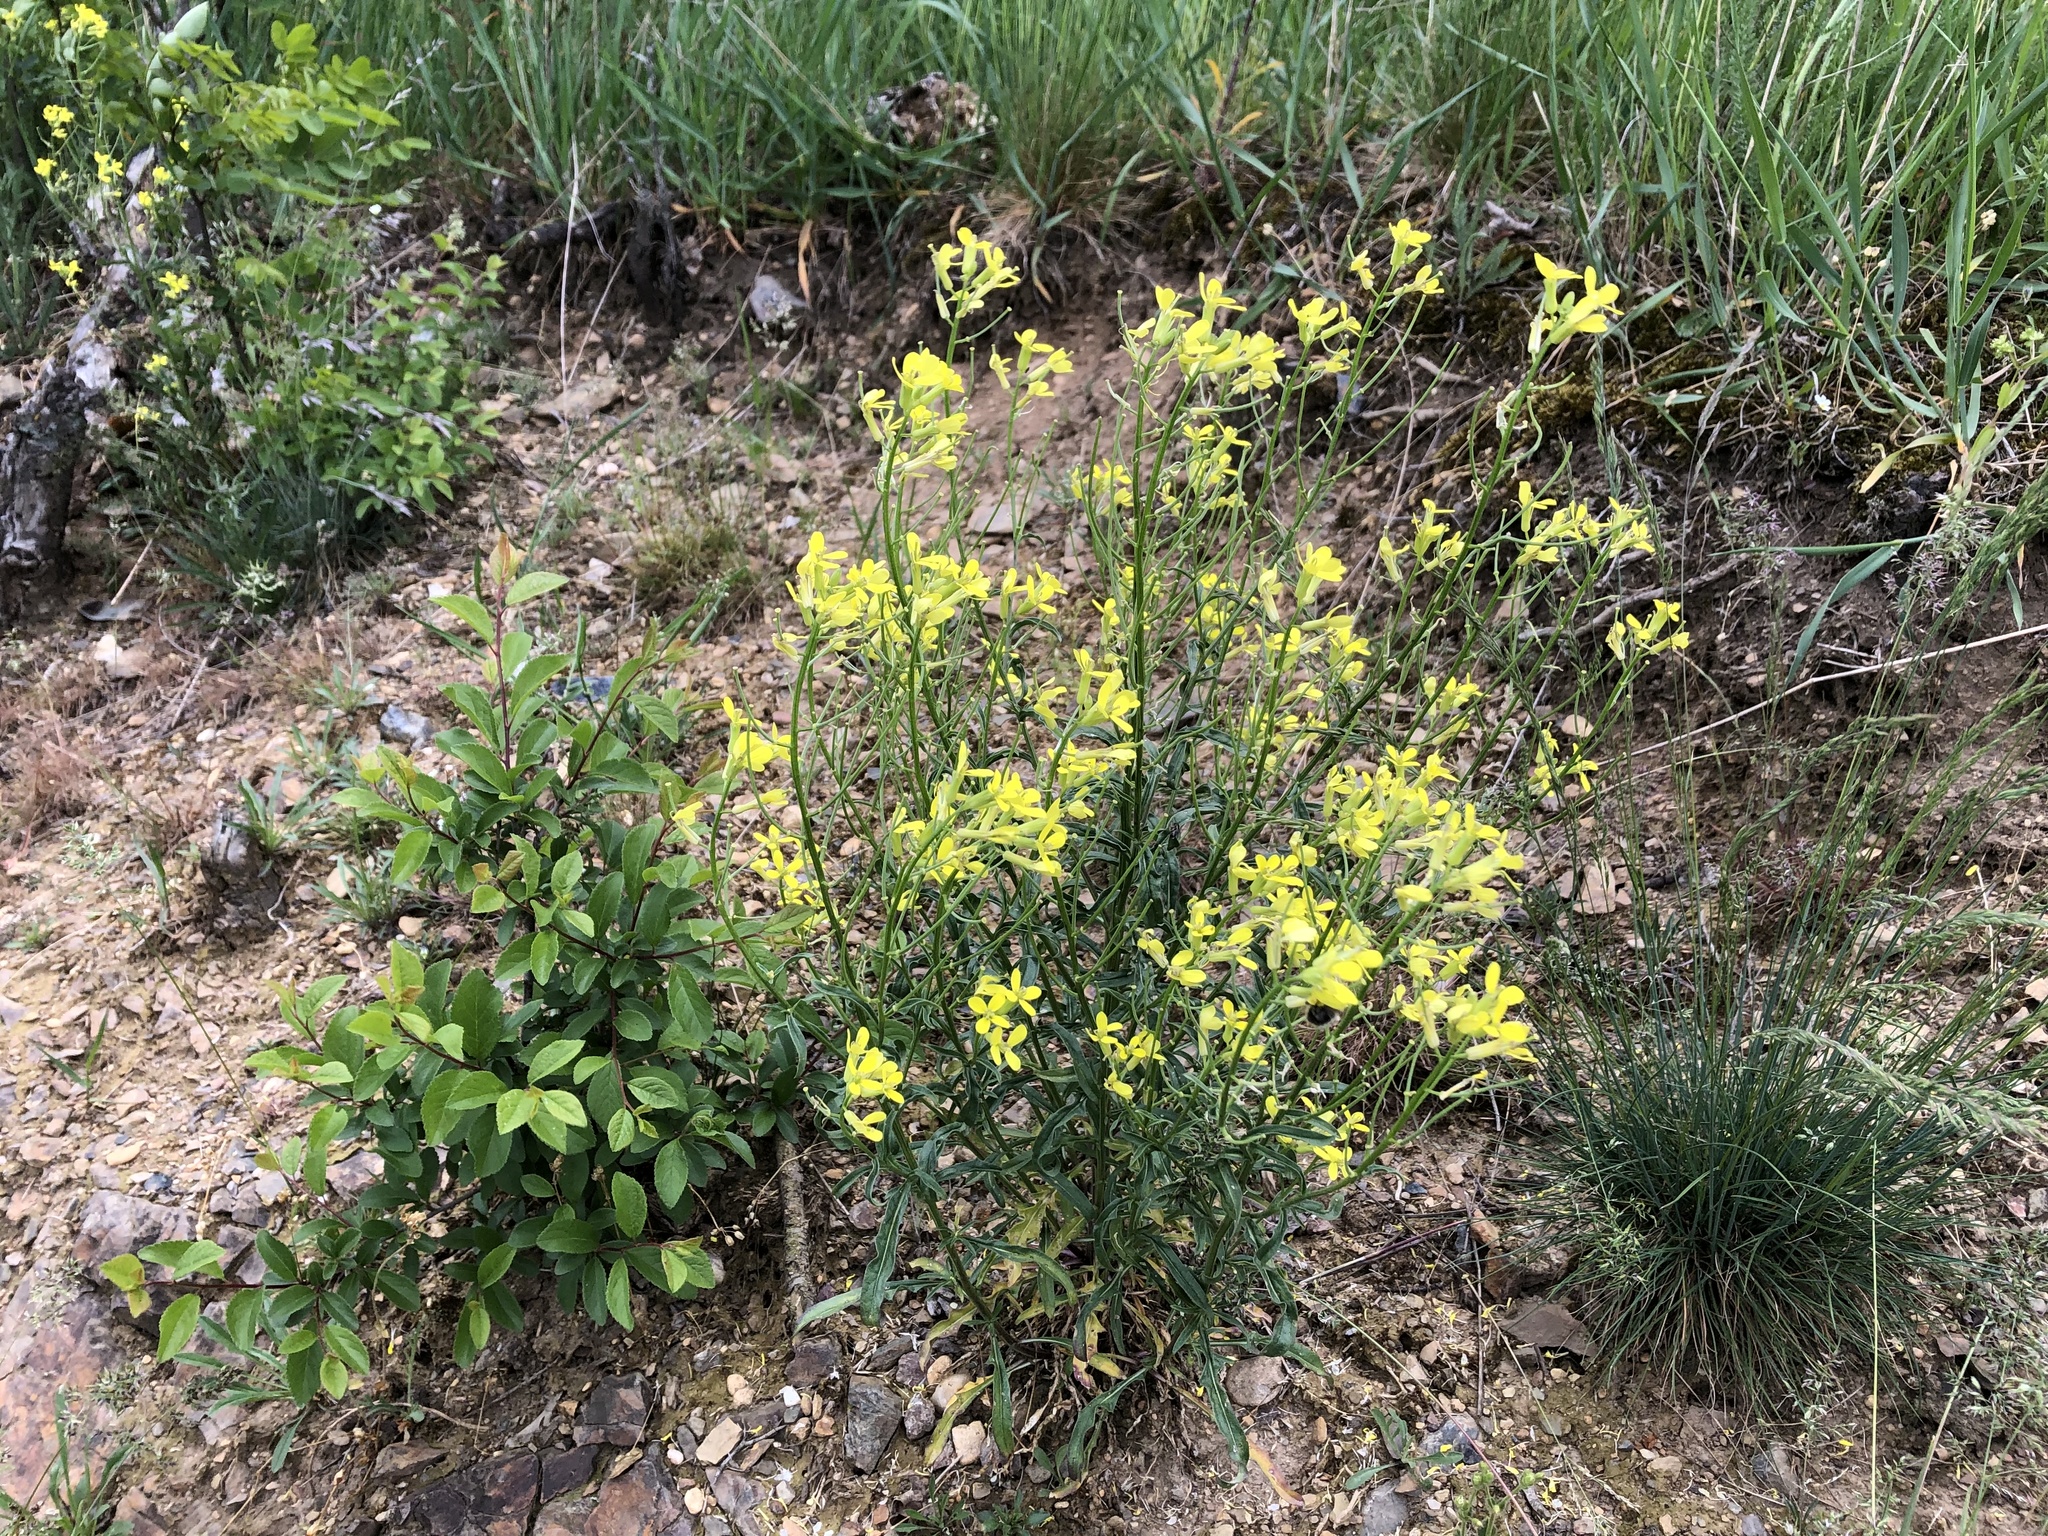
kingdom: Plantae
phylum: Tracheophyta
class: Magnoliopsida
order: Brassicales
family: Brassicaceae
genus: Erysimum
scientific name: Erysimum crepidifolium
